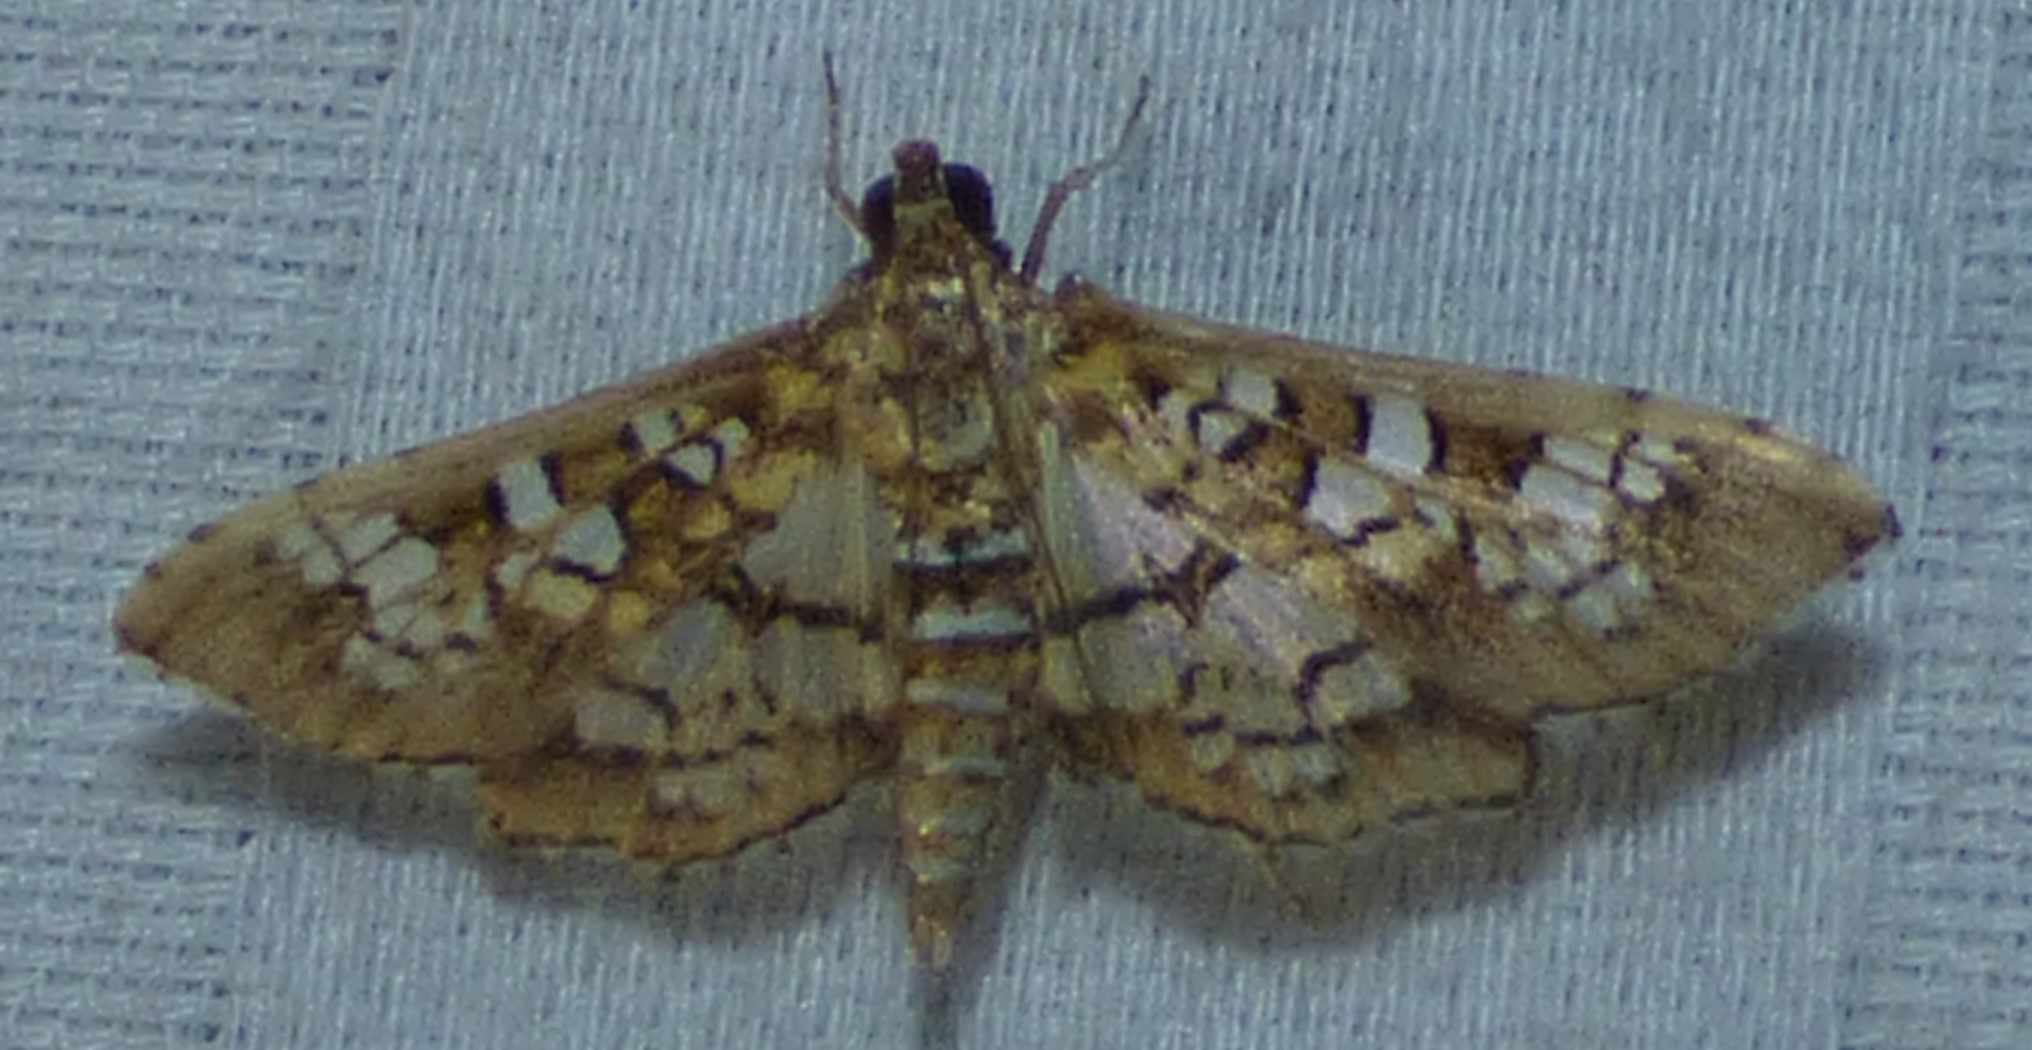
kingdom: Animalia
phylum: Arthropoda
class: Insecta
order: Lepidoptera
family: Crambidae
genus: Samea
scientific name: Samea ecclesialis
